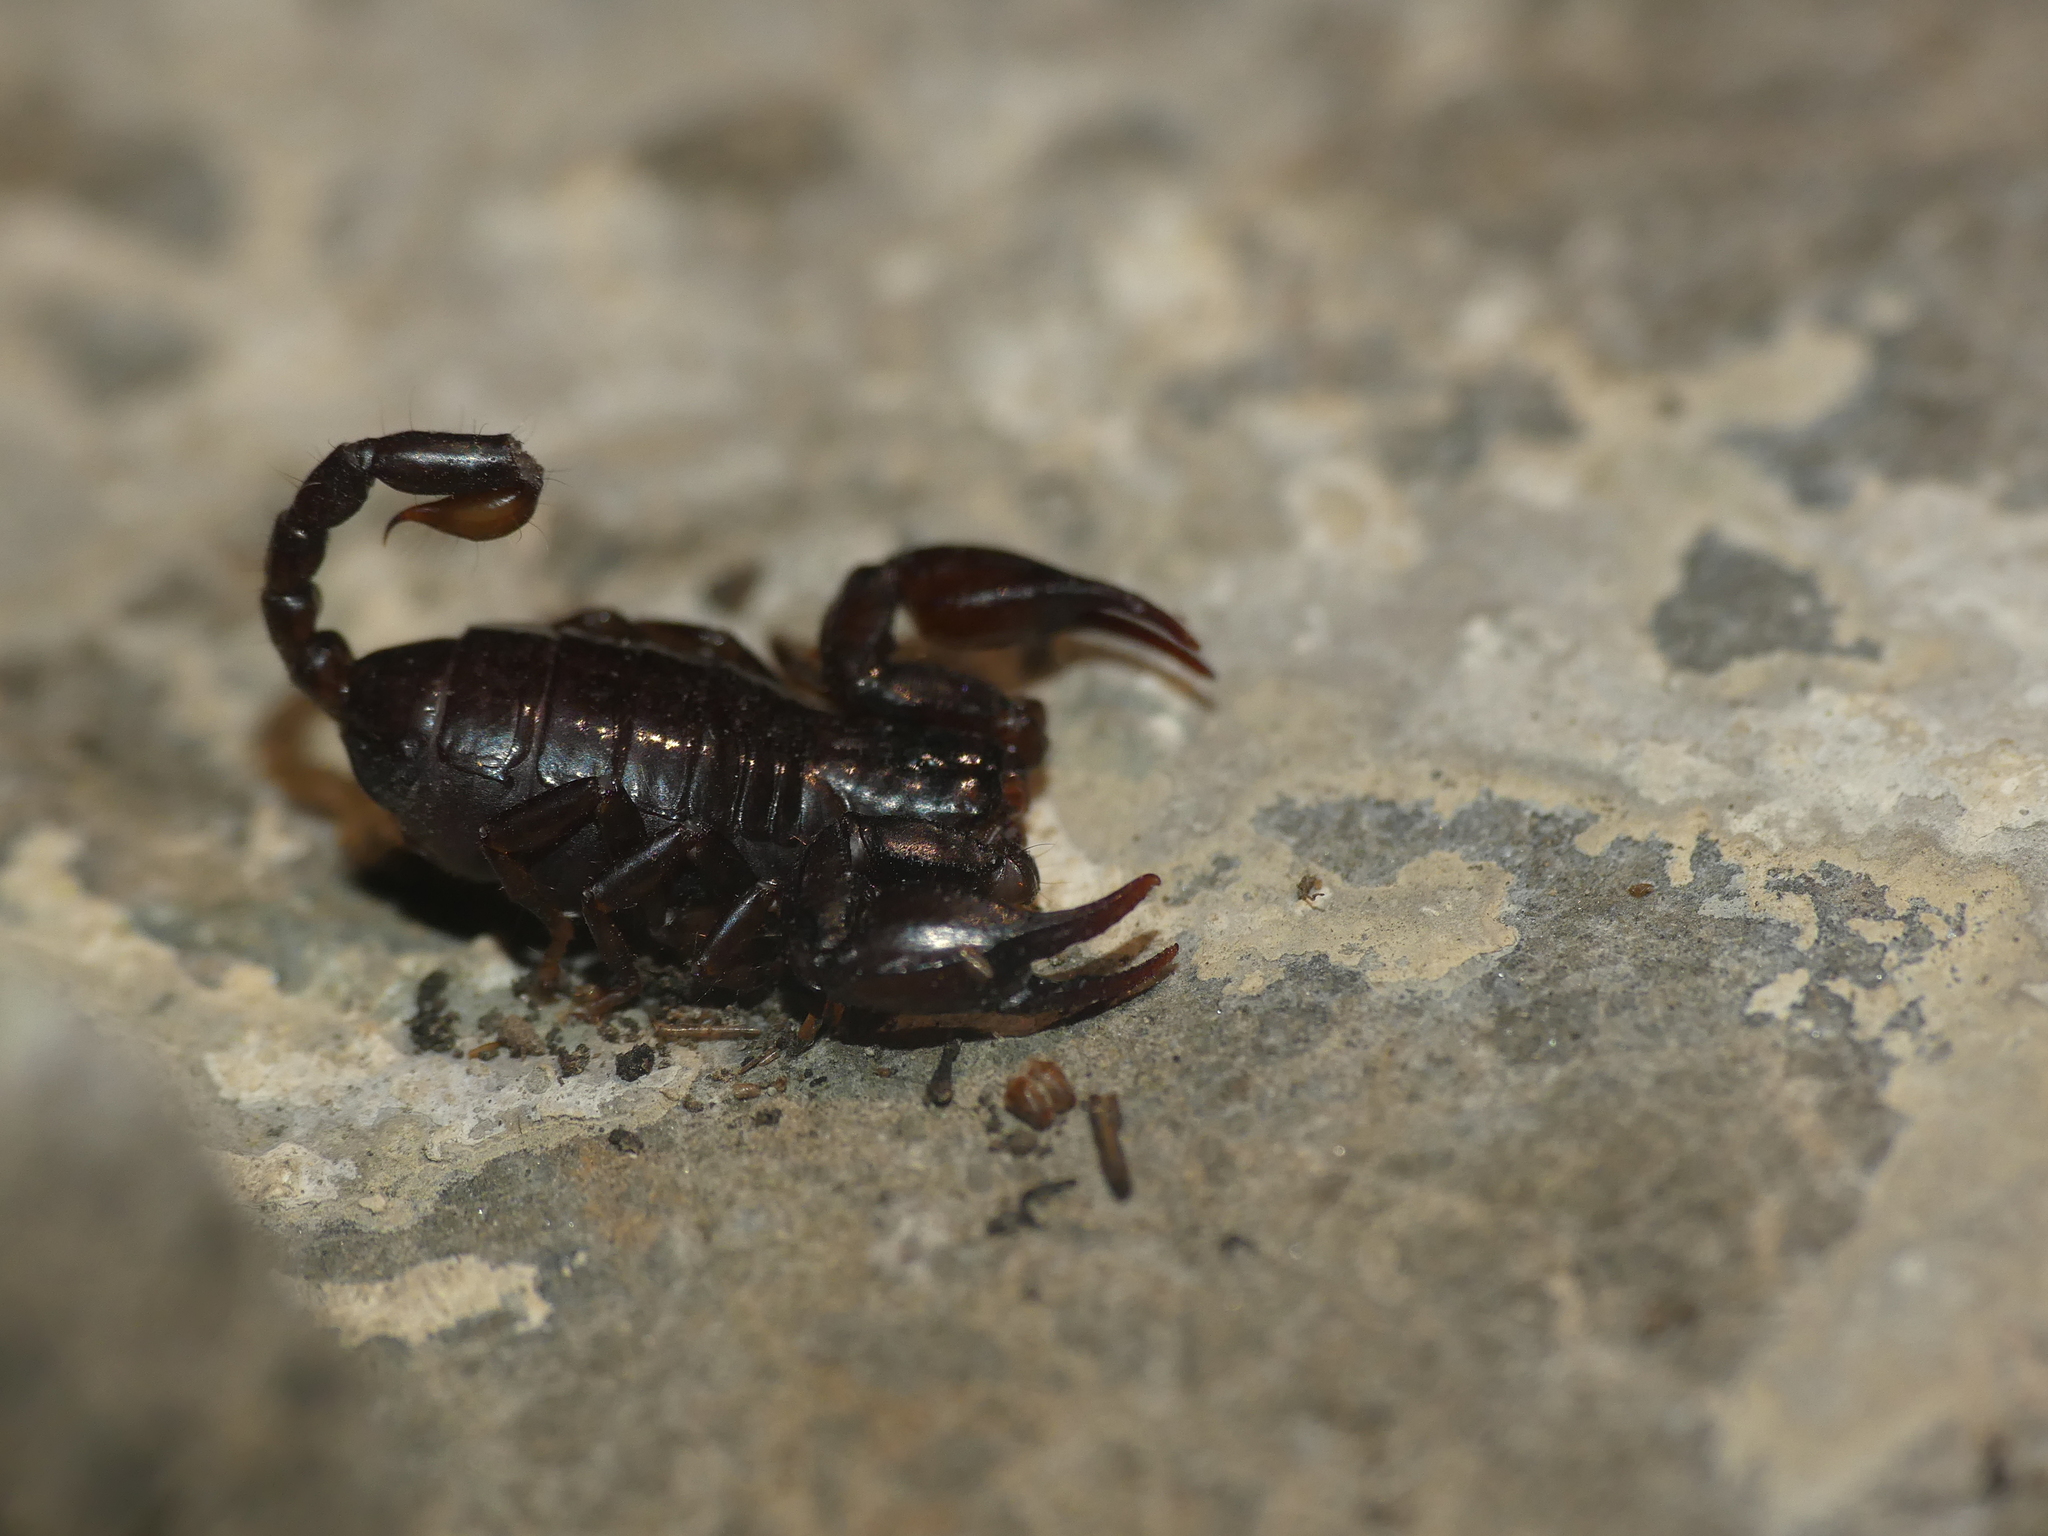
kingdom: Animalia
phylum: Arthropoda
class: Arachnida
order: Scorpiones
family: Euscorpiidae
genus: Alpiscorpius
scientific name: Alpiscorpius germanus
